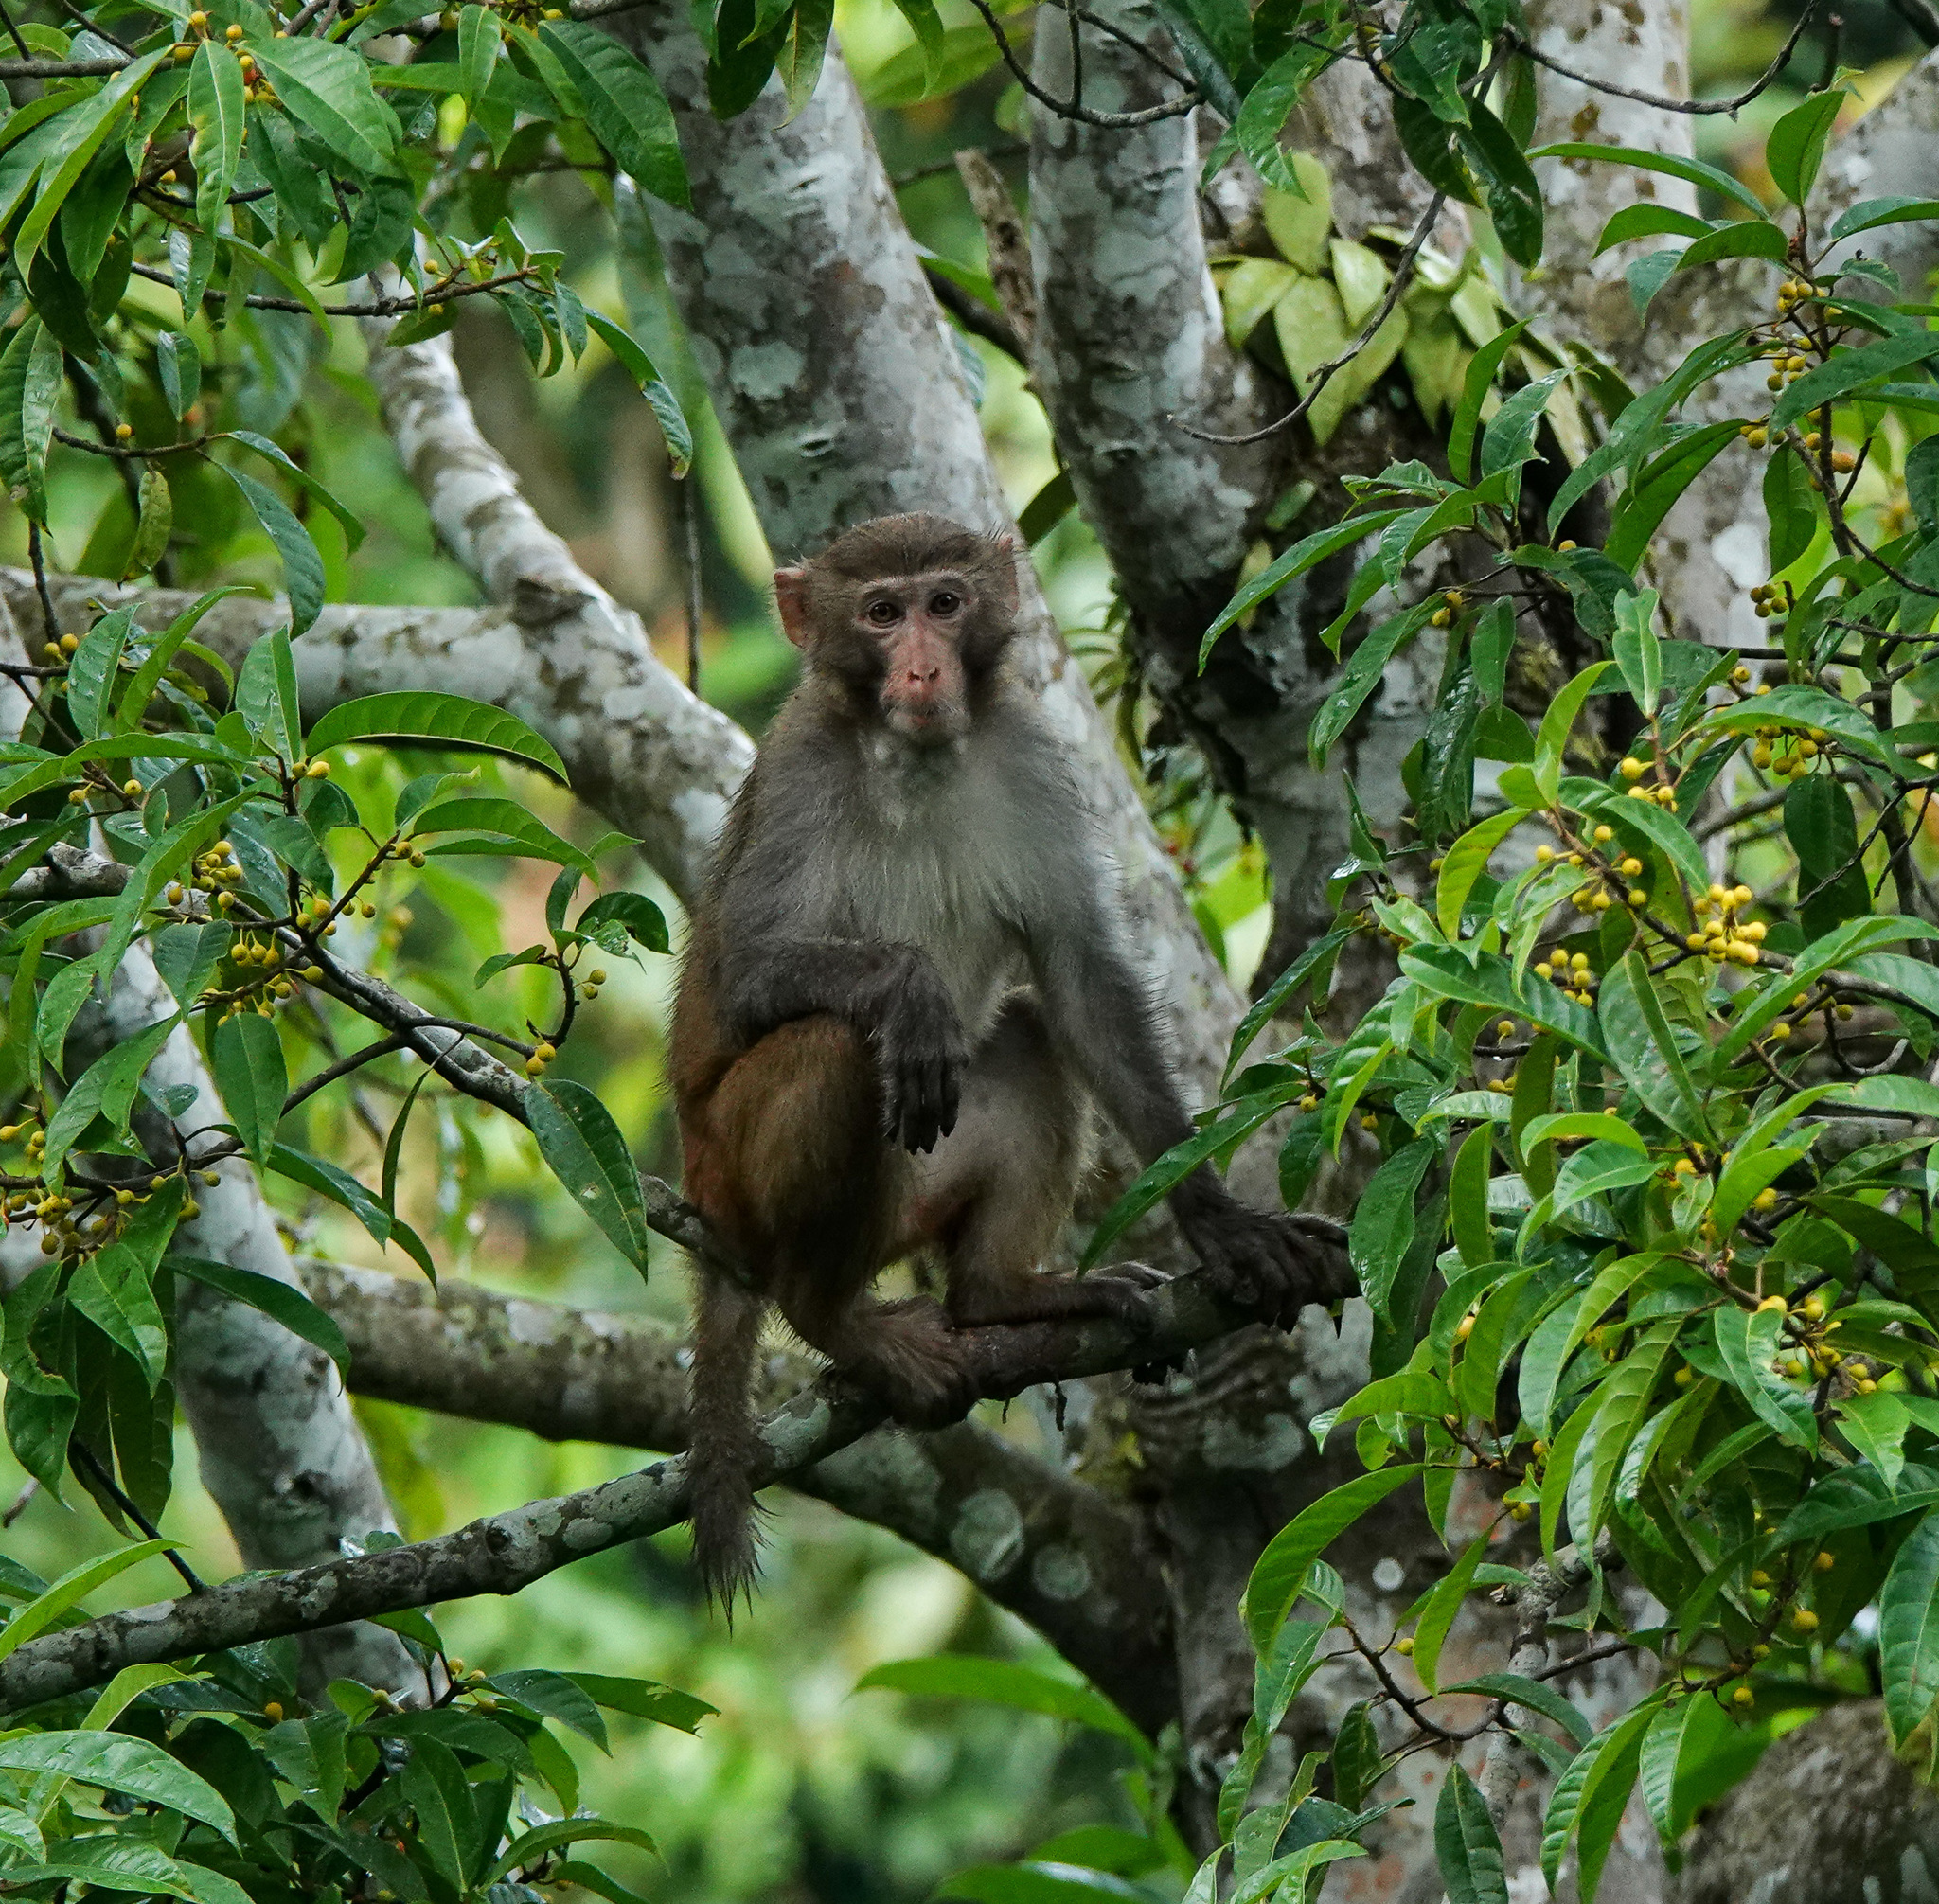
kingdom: Animalia
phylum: Chordata
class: Mammalia
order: Primates
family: Cercopithecidae
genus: Macaca
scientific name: Macaca mulatta
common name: Rhesus monkey
